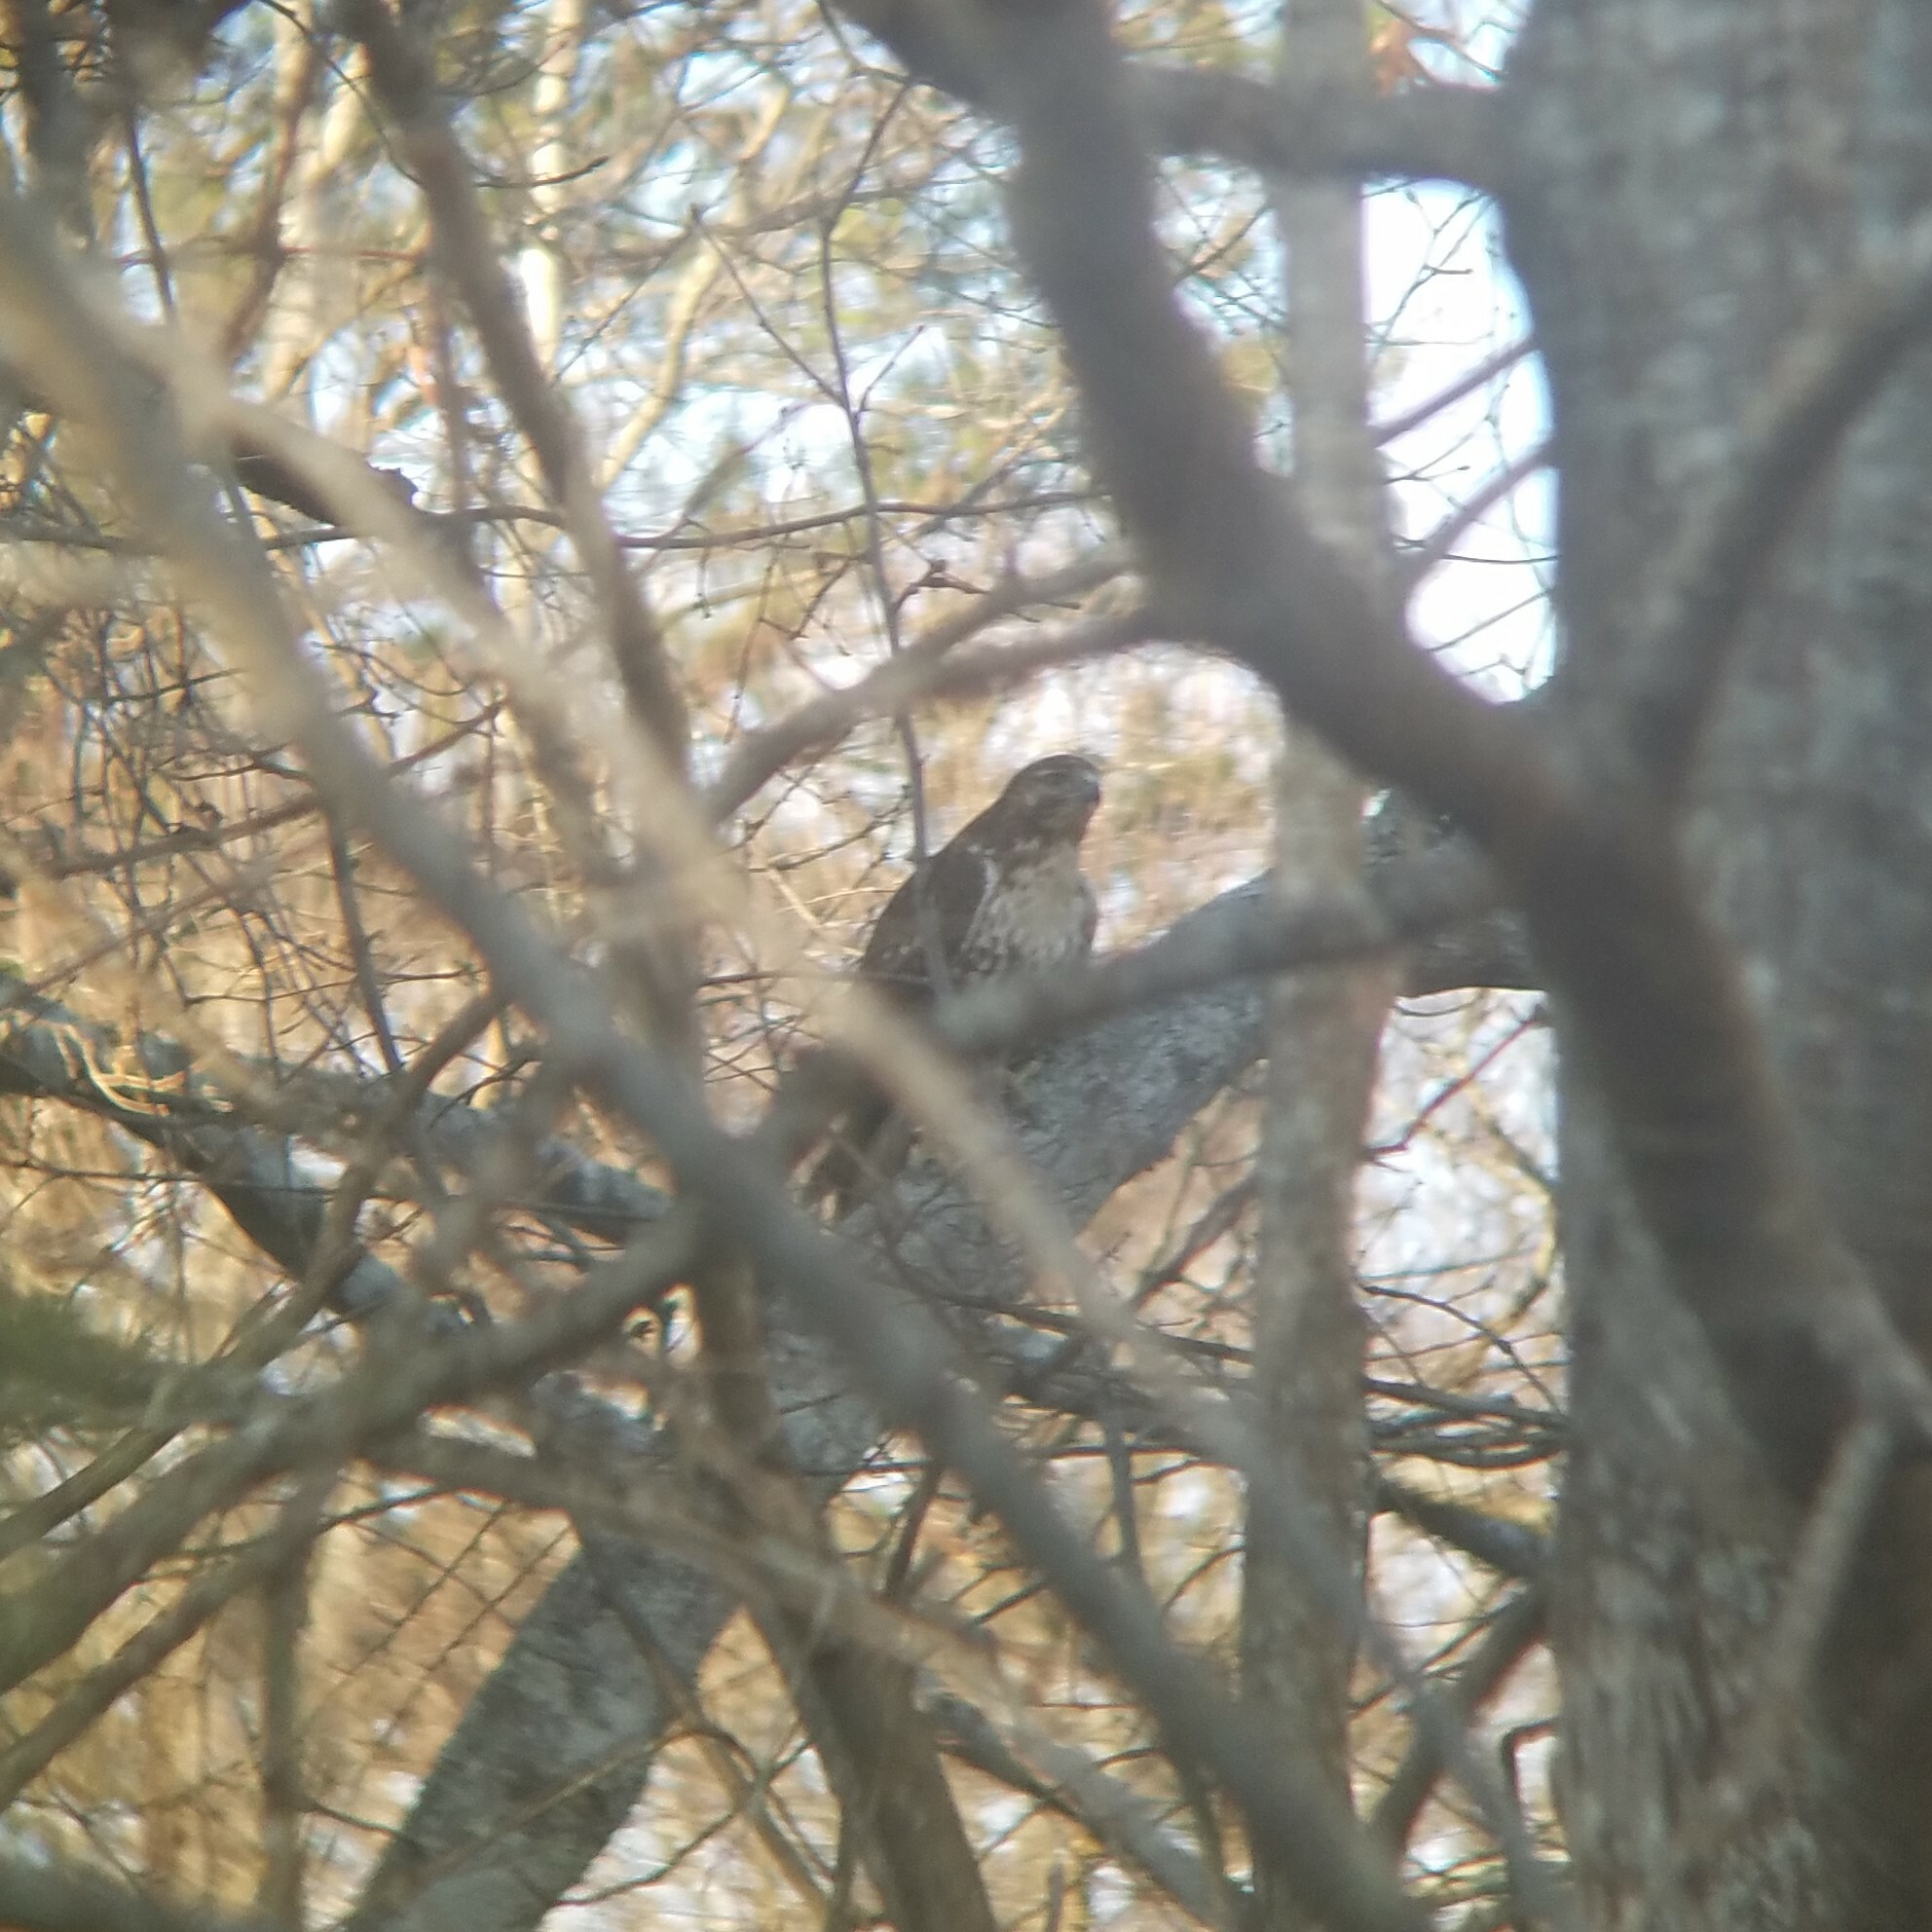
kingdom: Animalia
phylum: Chordata
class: Aves
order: Accipitriformes
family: Accipitridae
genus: Buteo
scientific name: Buteo jamaicensis
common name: Red-tailed hawk
